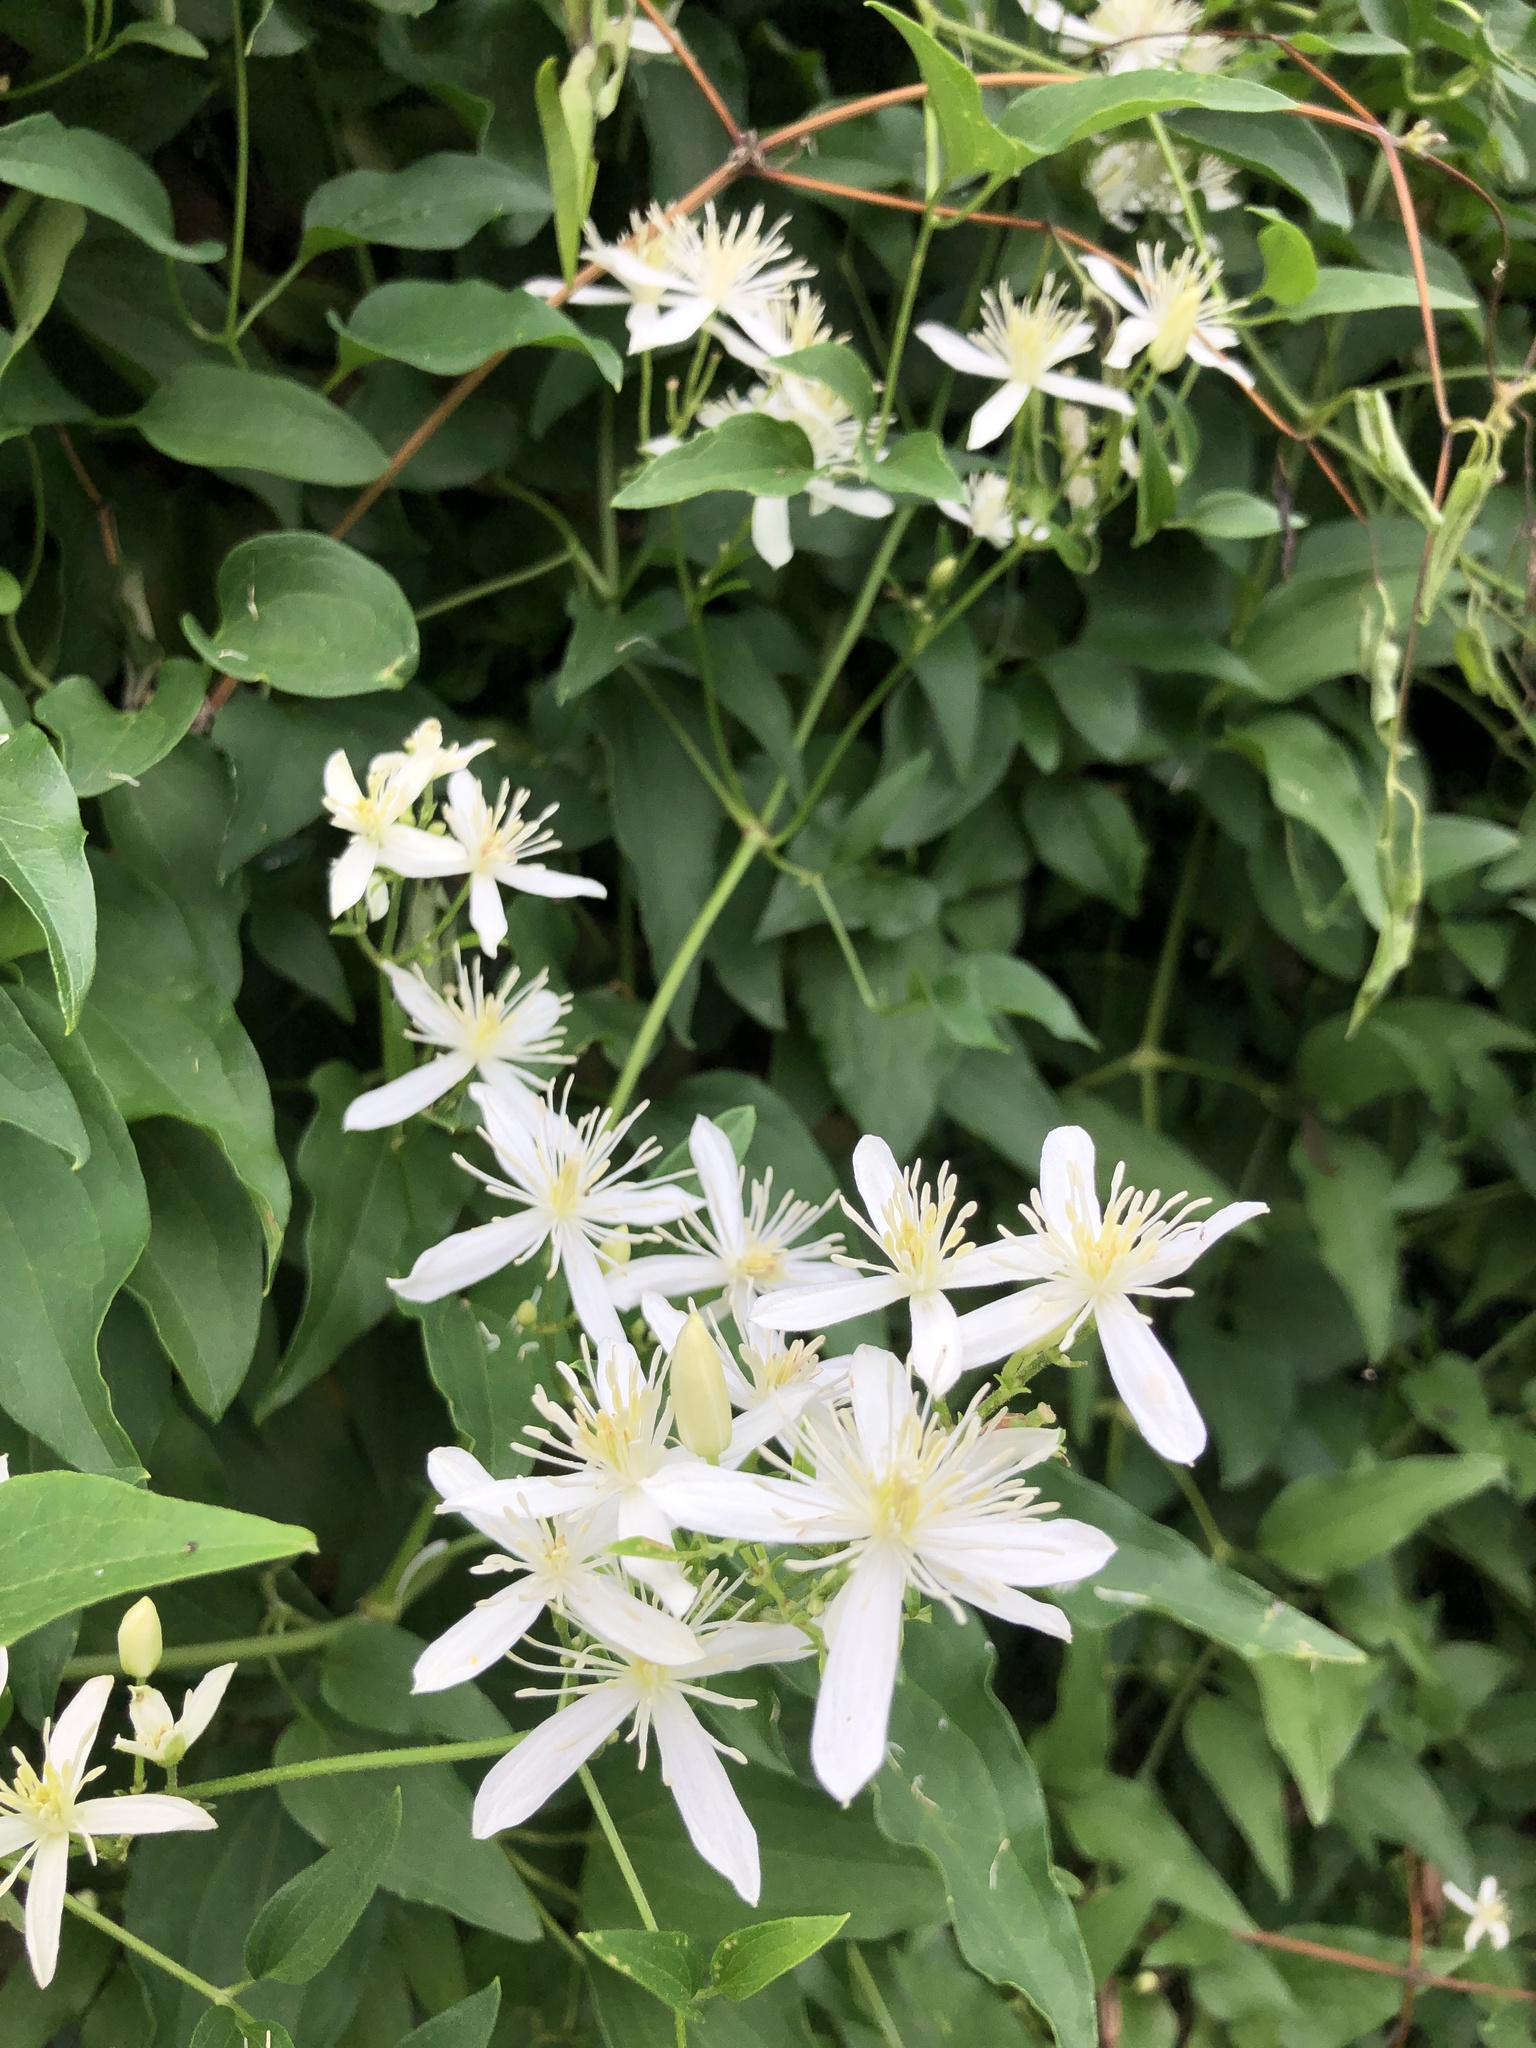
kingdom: Plantae
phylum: Tracheophyta
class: Magnoliopsida
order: Ranunculales
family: Ranunculaceae
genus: Clematis
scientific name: Clematis terniflora
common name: Sweet autumn clematis
